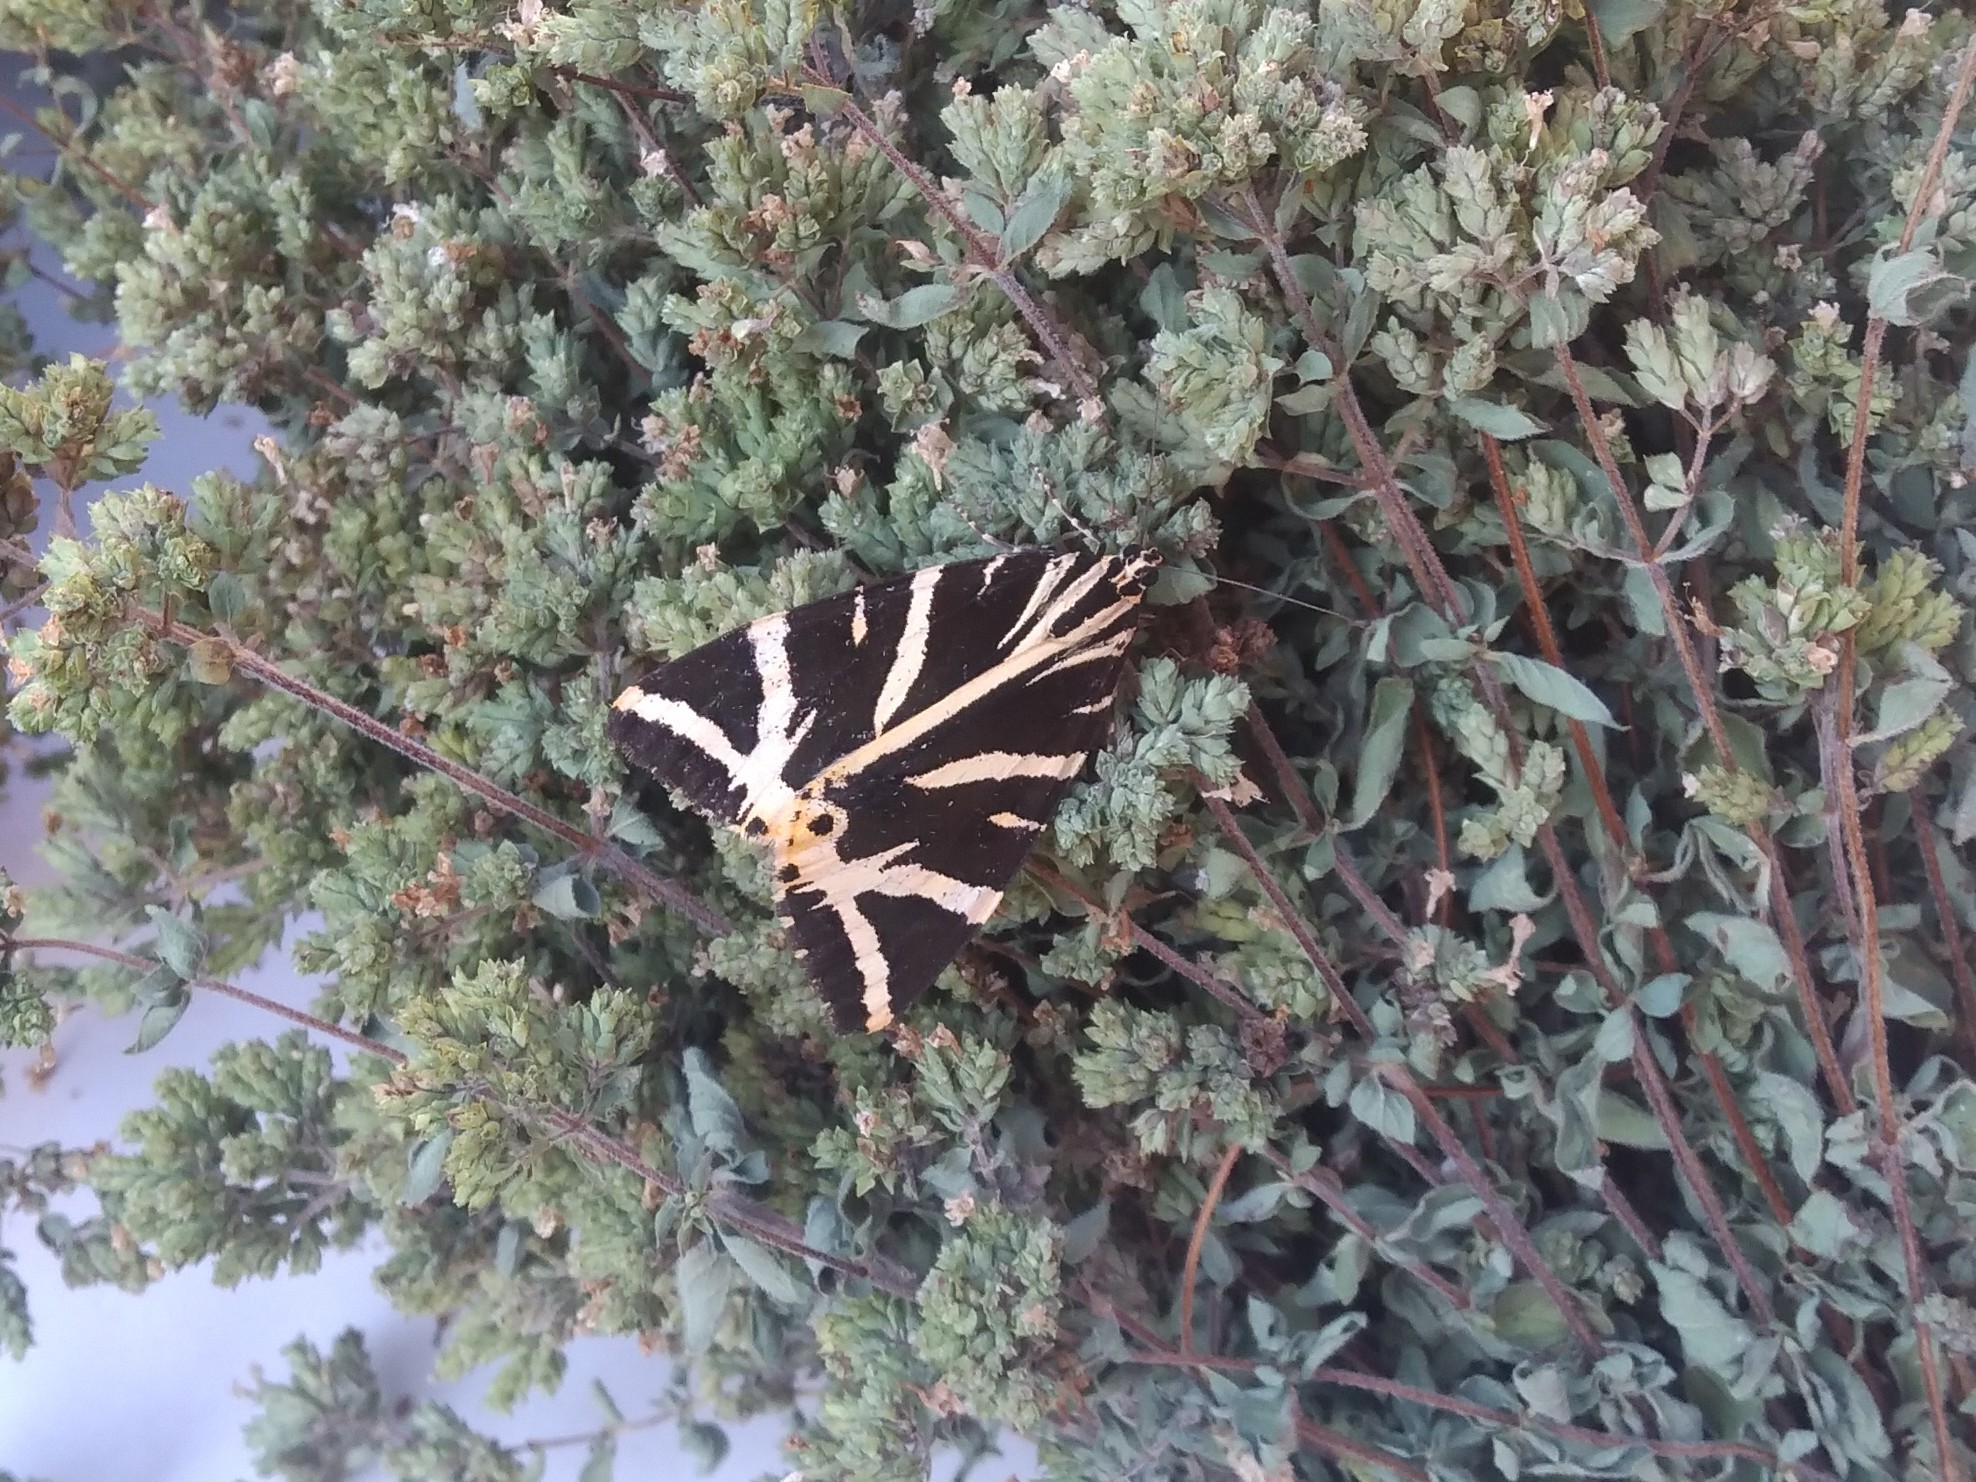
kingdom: Animalia
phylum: Arthropoda
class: Insecta
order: Lepidoptera
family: Erebidae
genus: Euplagia
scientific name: Euplagia quadripunctaria
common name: Jersey tiger
